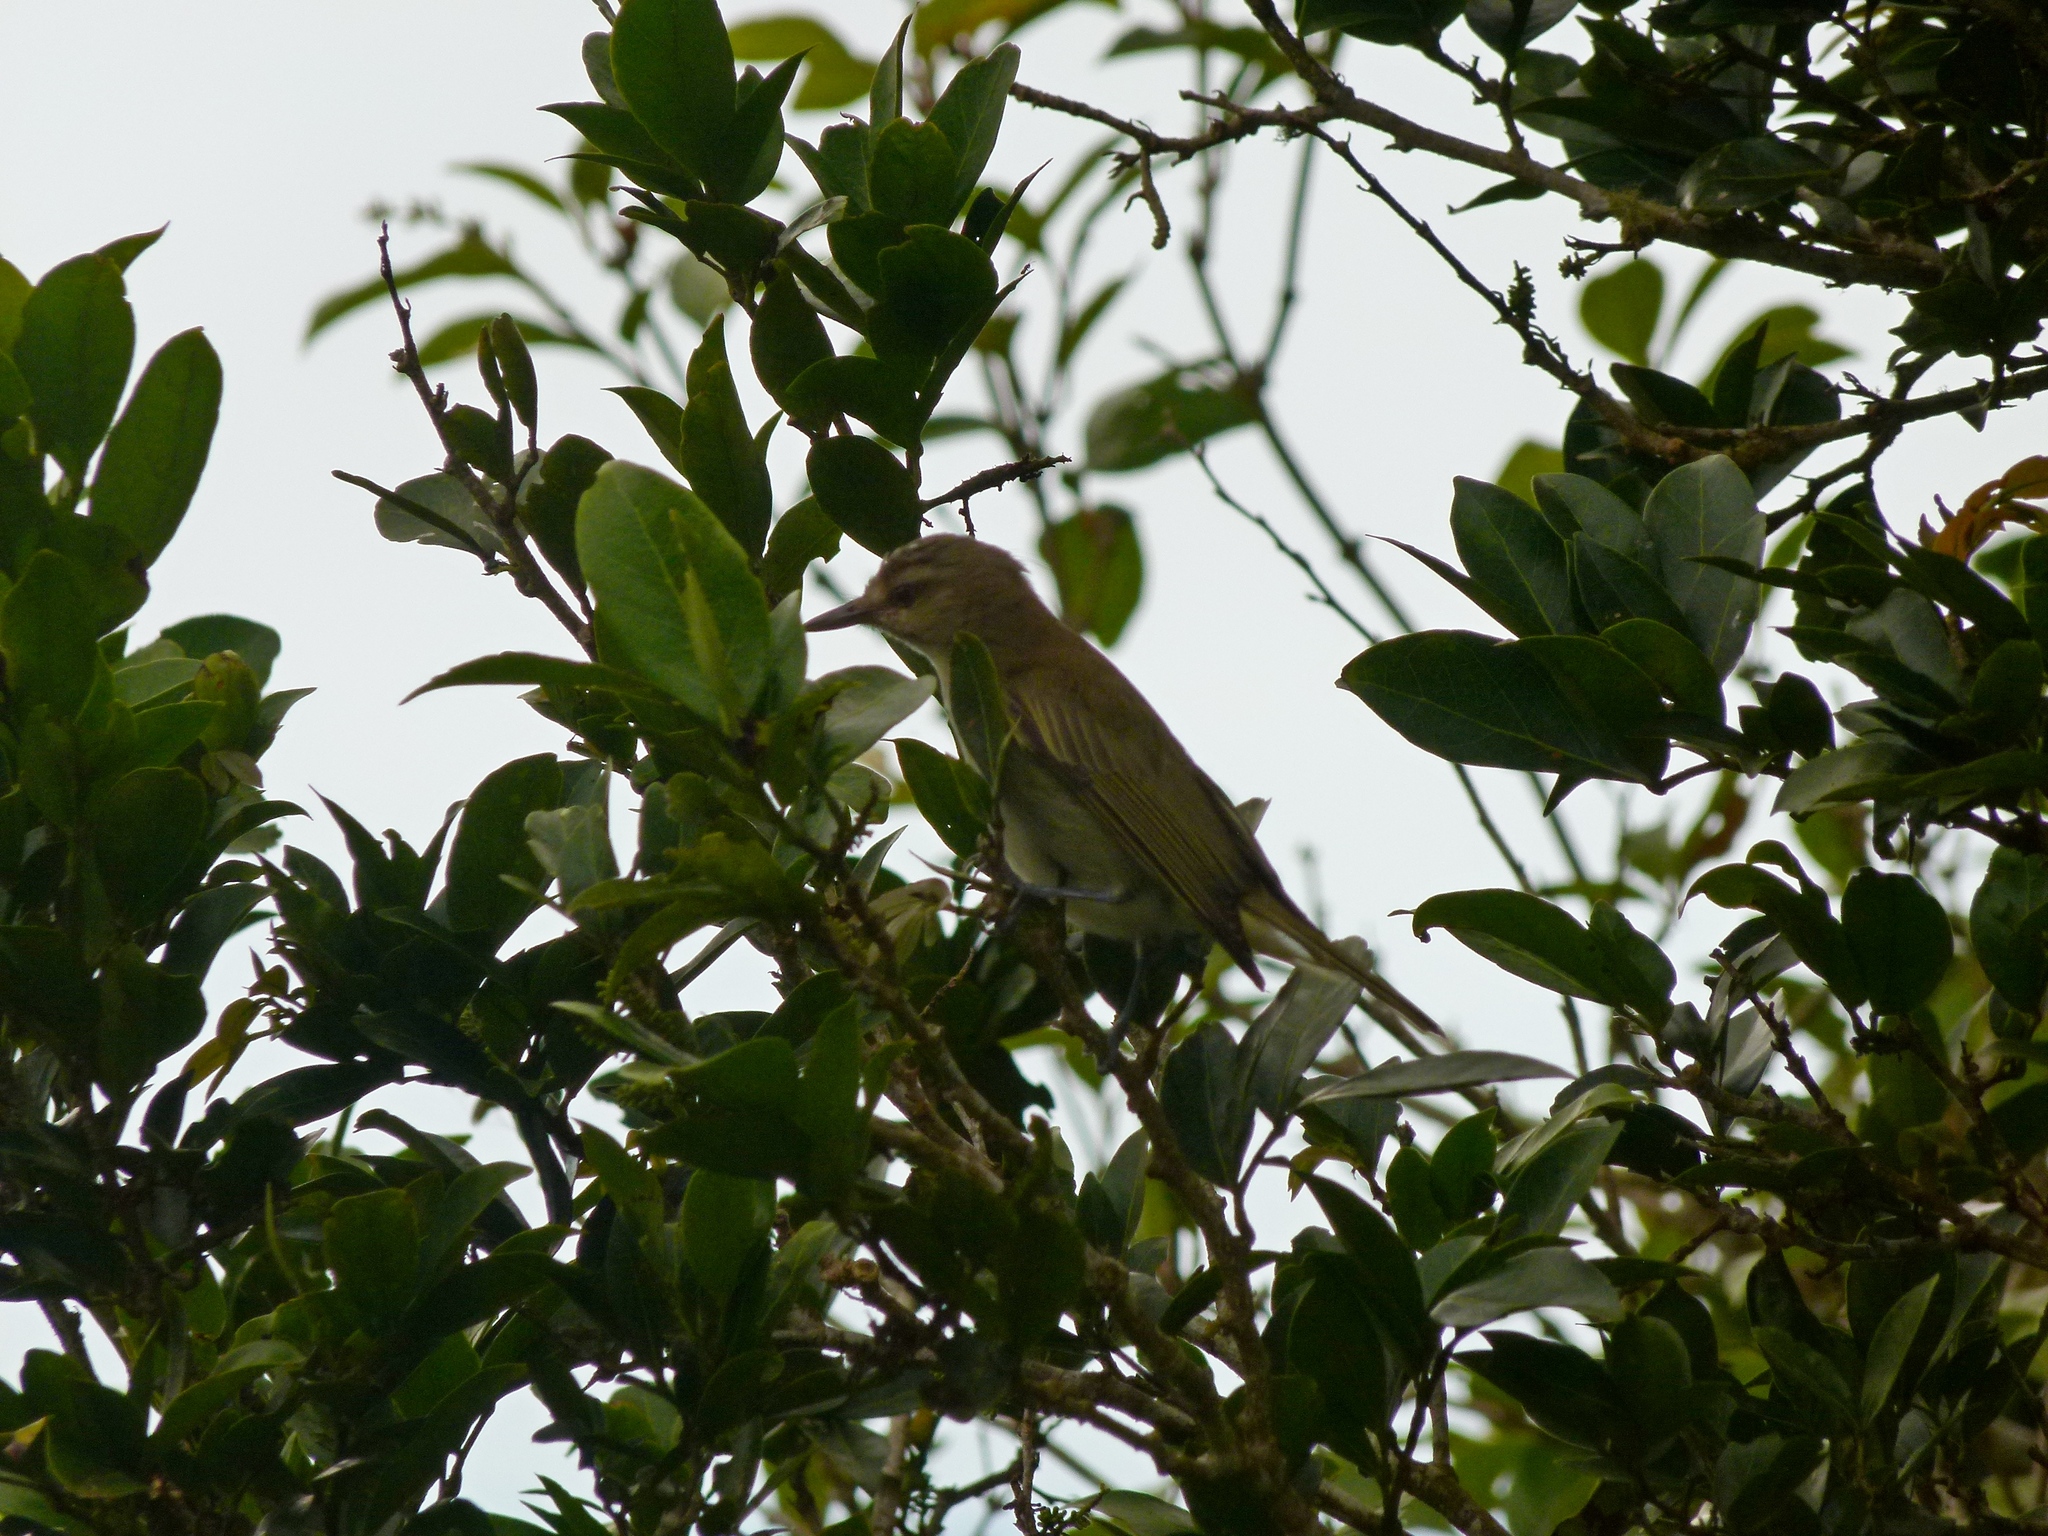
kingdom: Animalia
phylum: Chordata
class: Aves
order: Passeriformes
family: Vireonidae
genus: Vireo
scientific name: Vireo altiloquus
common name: Black-whiskered vireo
